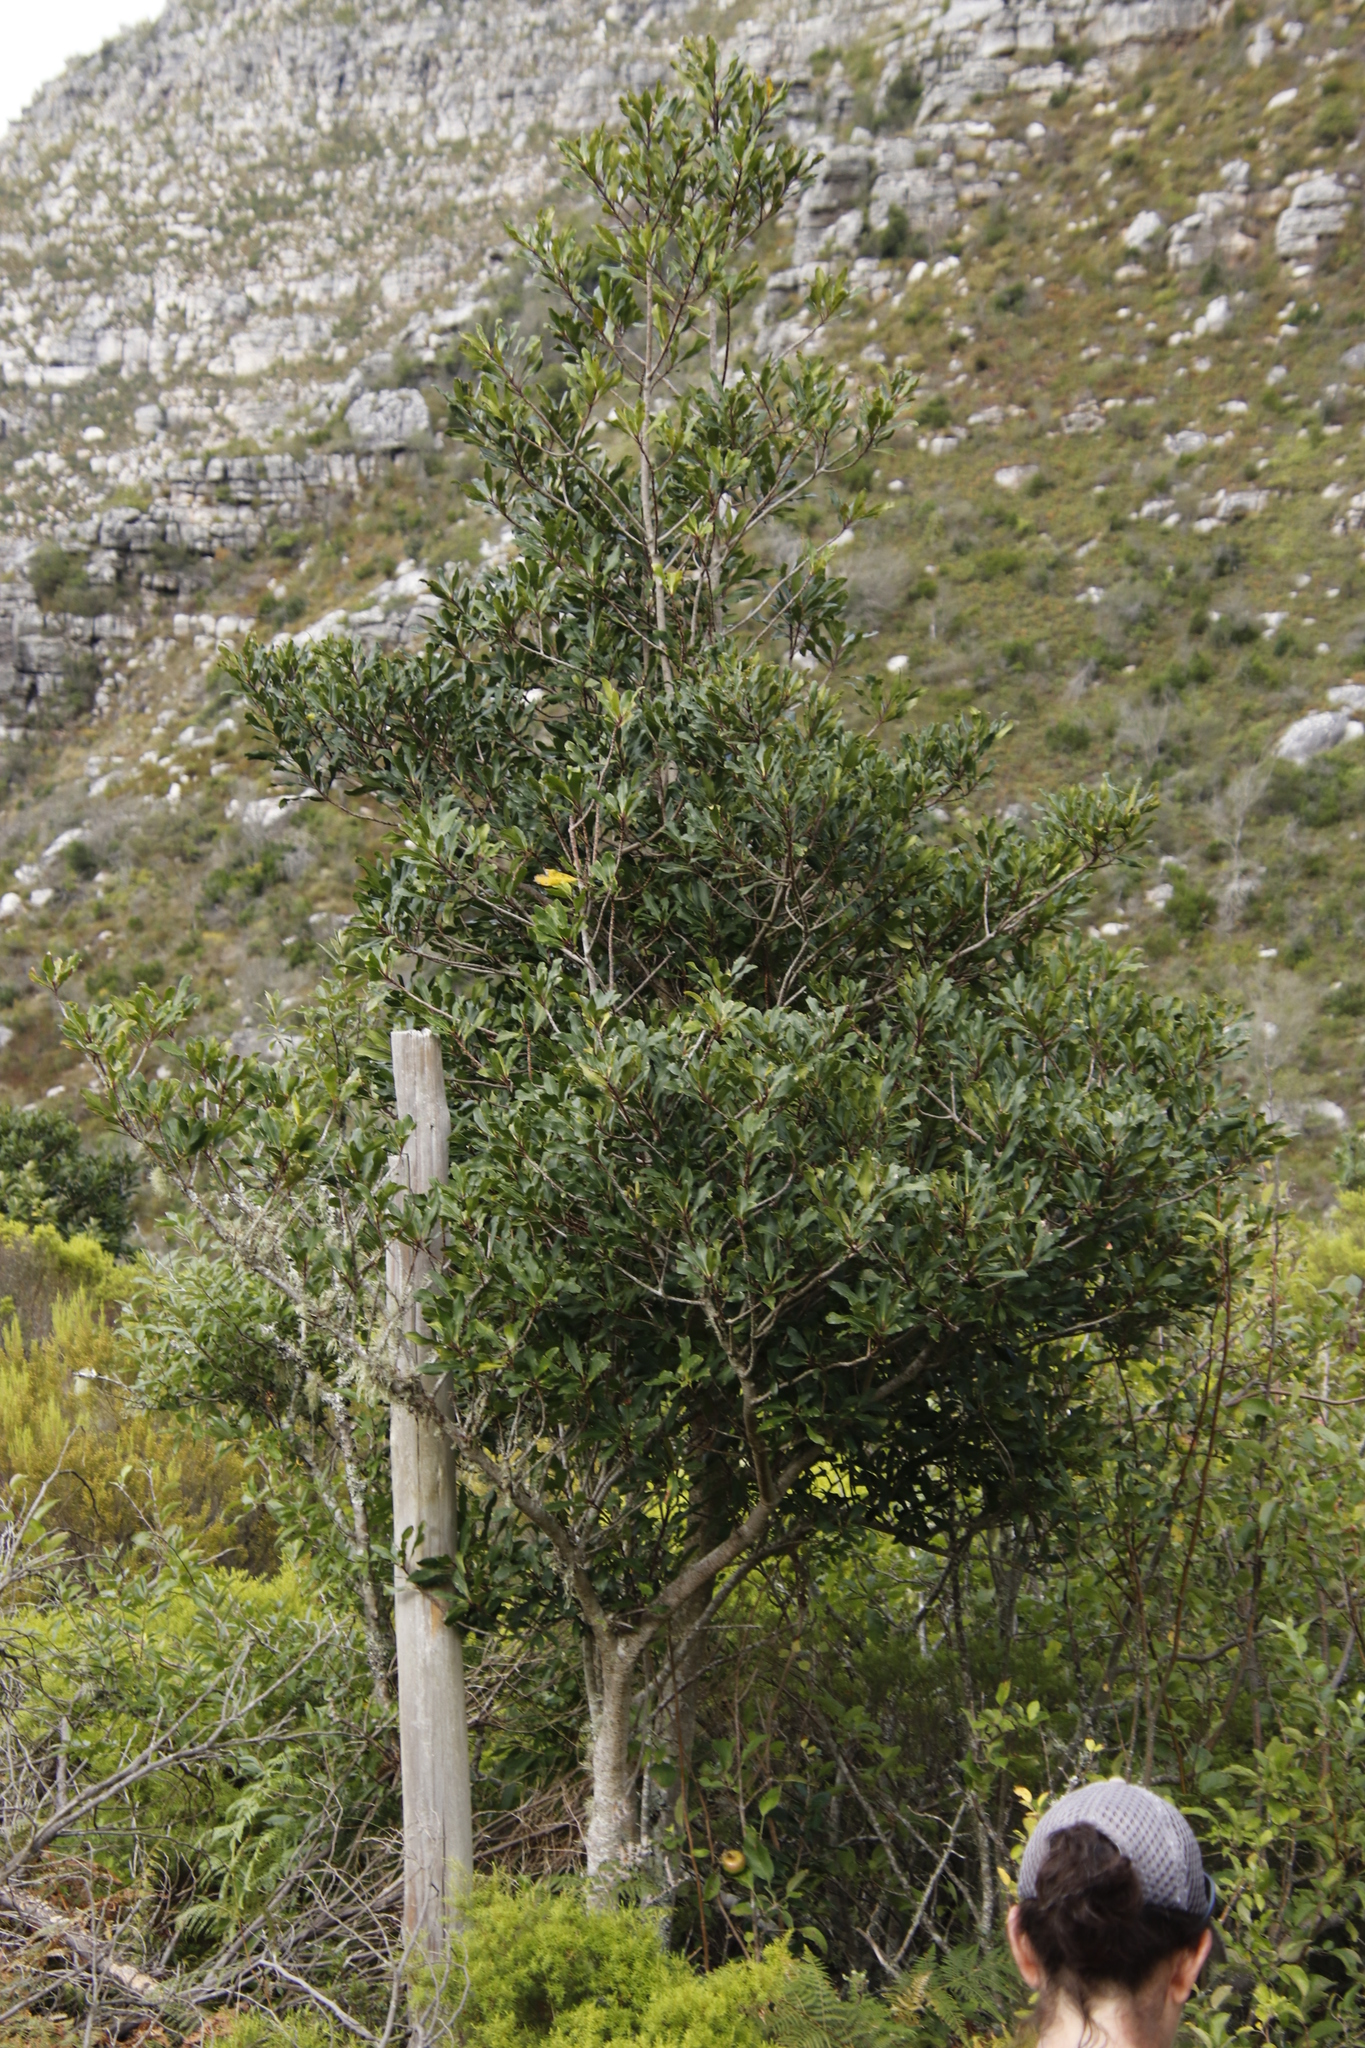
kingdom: Plantae
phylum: Tracheophyta
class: Magnoliopsida
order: Fabales
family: Fabaceae
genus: Acacia
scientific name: Acacia melanoxylon
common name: Blackwood
